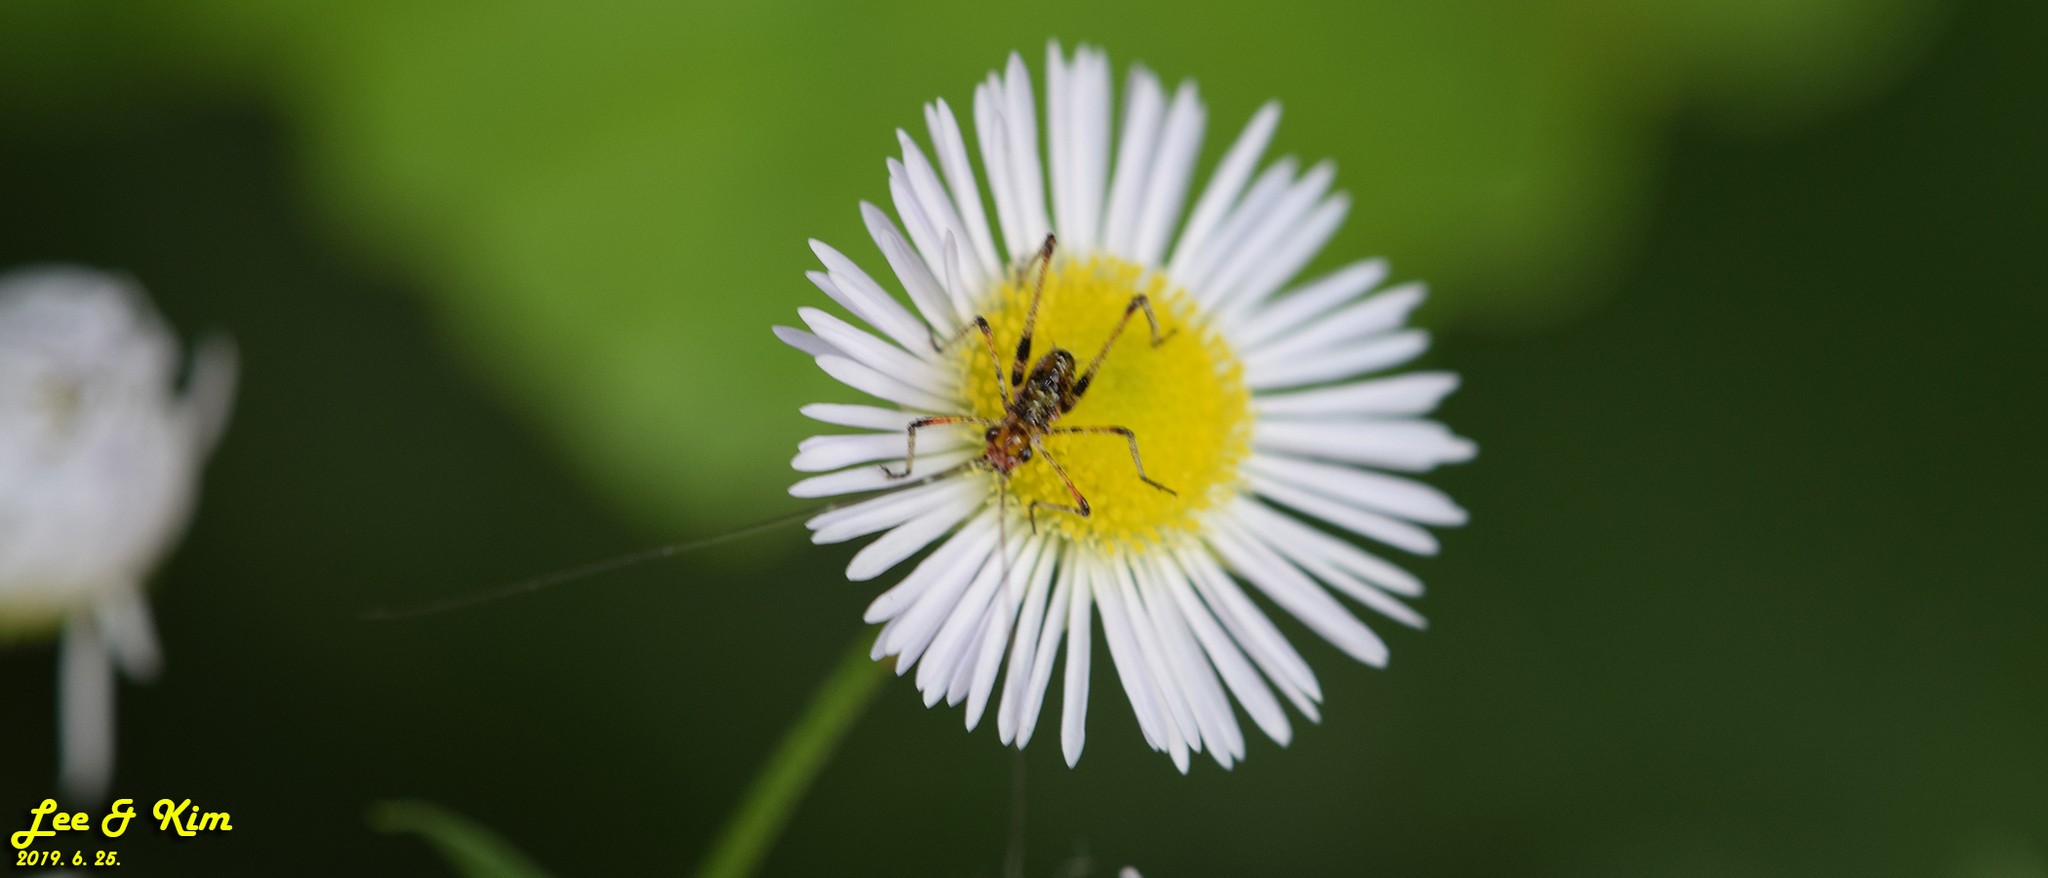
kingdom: Animalia
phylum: Arthropoda
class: Insecta
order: Orthoptera
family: Tettigoniidae
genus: Phaneroptera
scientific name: Phaneroptera nigroantennata
